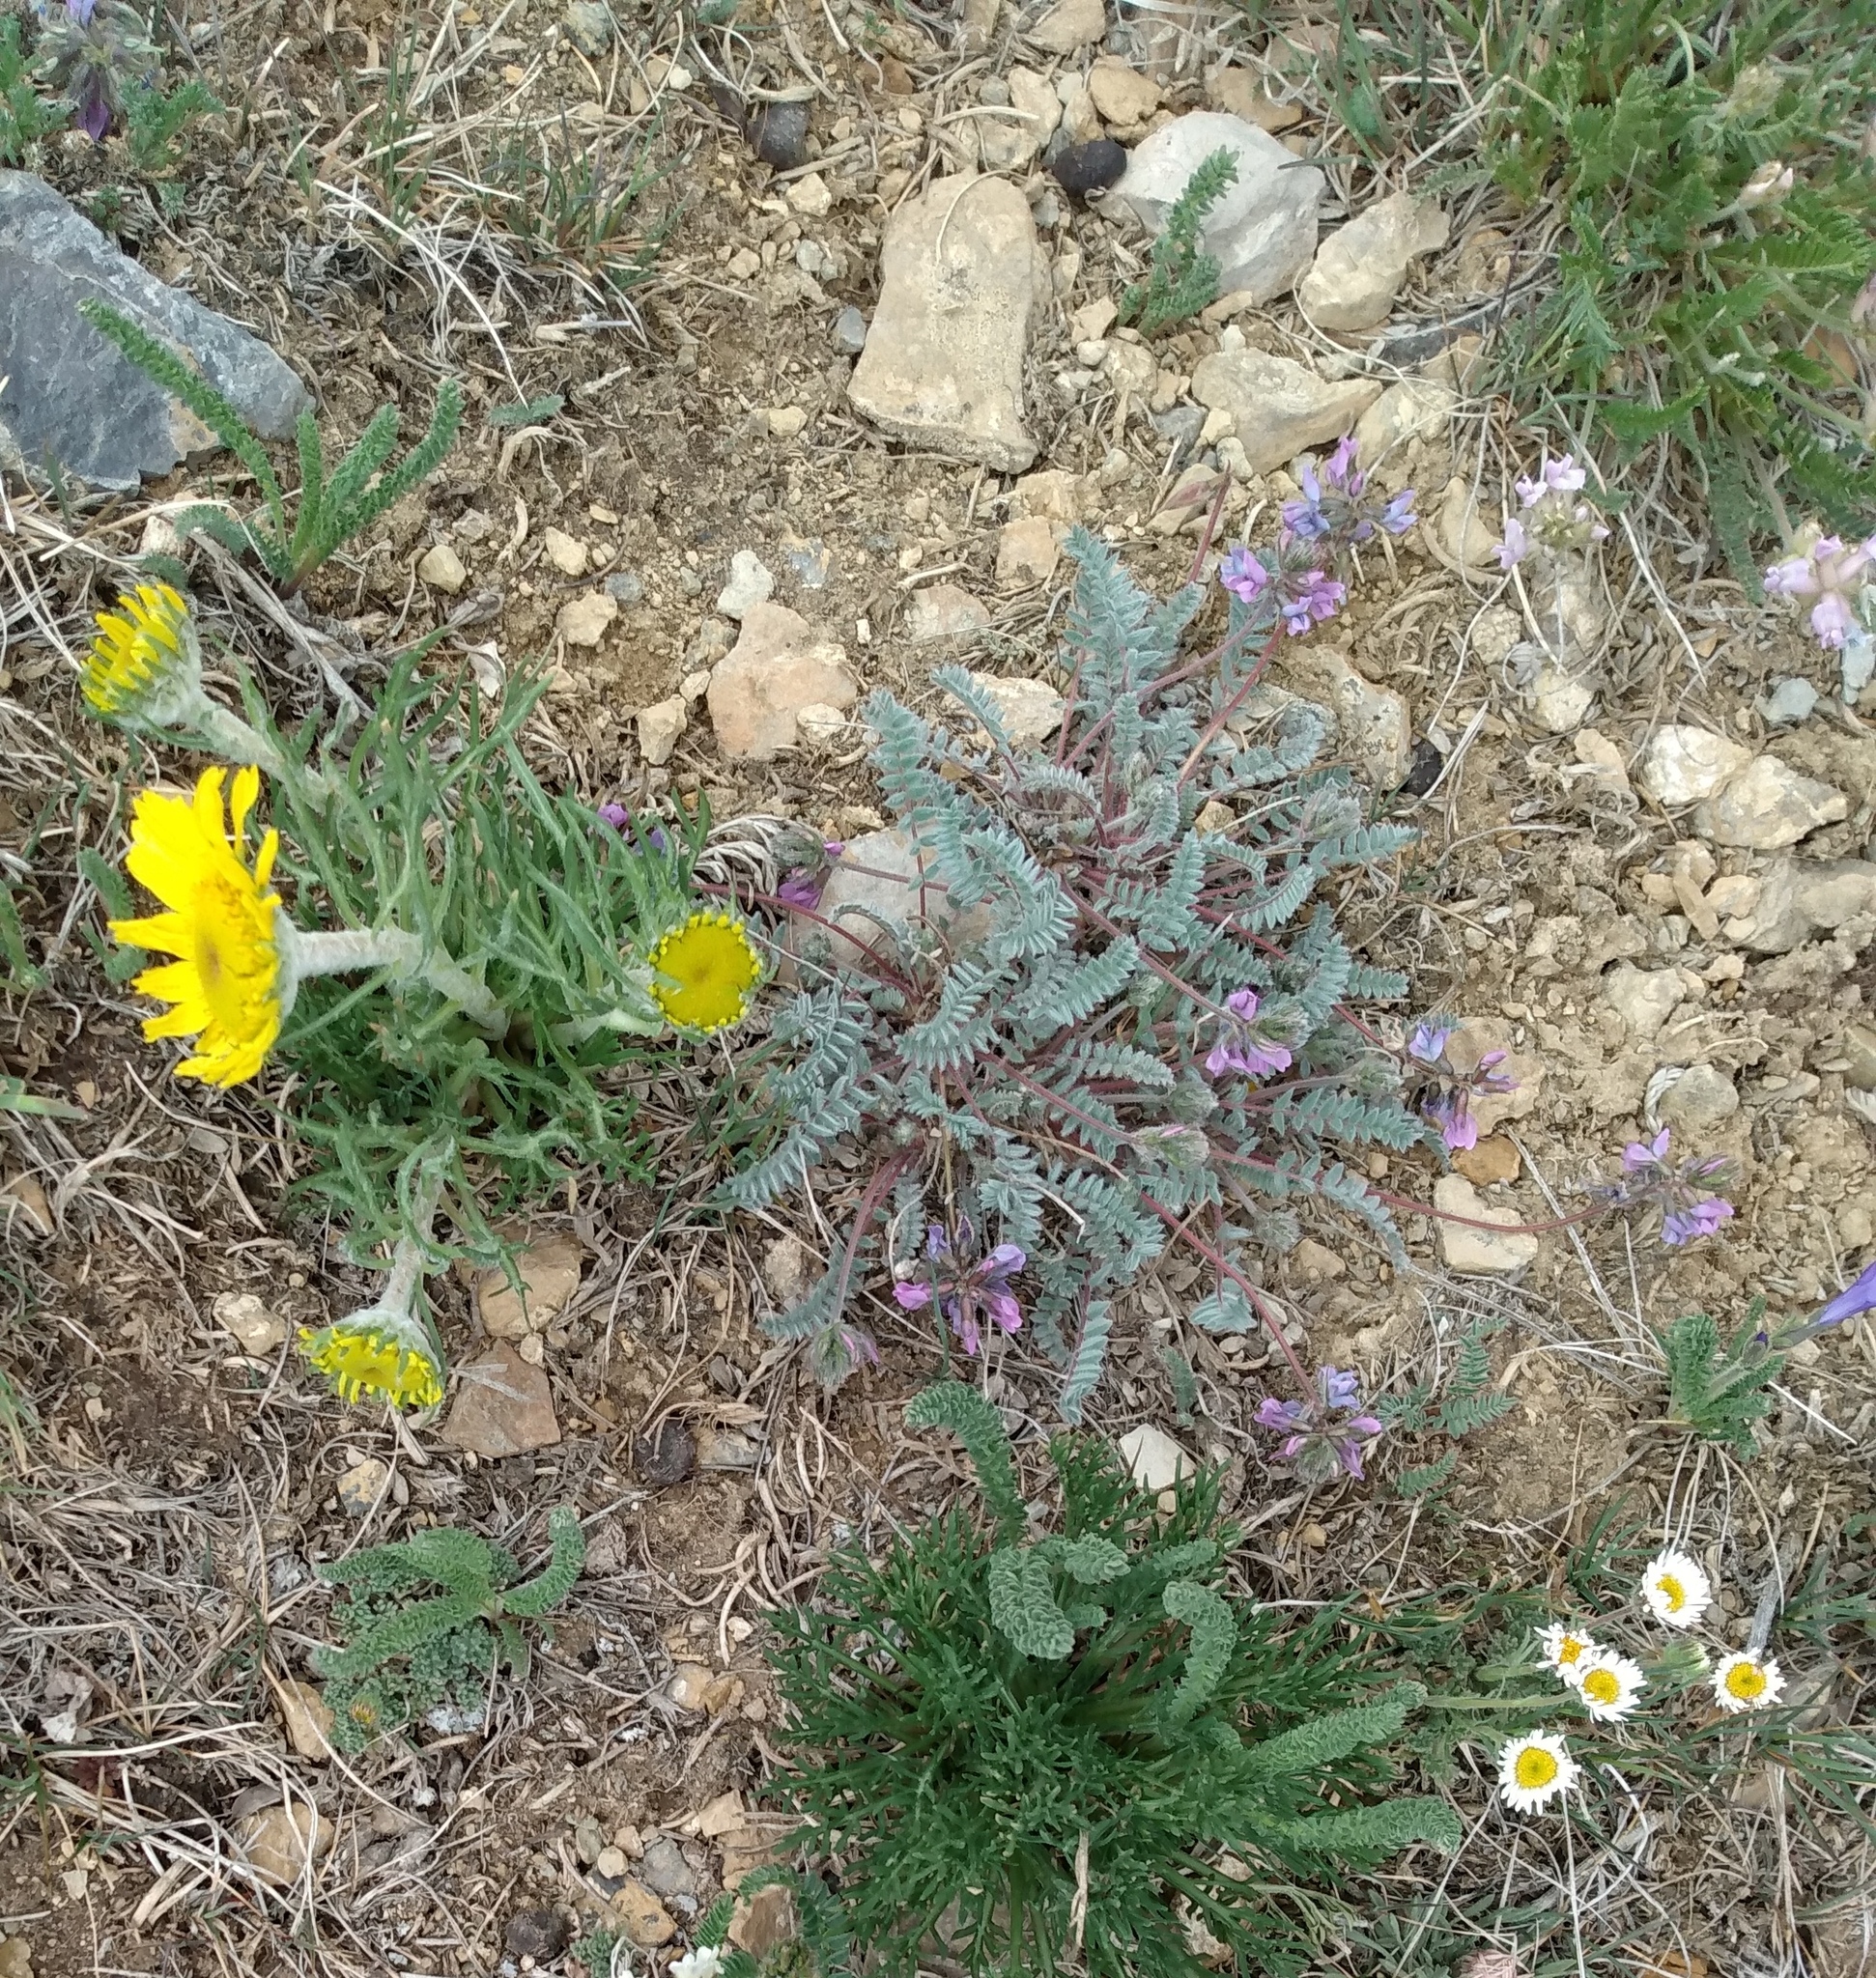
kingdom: Plantae
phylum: Tracheophyta
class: Magnoliopsida
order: Fabales
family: Fabaceae
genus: Oxytropis
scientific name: Oxytropis deflexa
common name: Stemmed oxytrope
